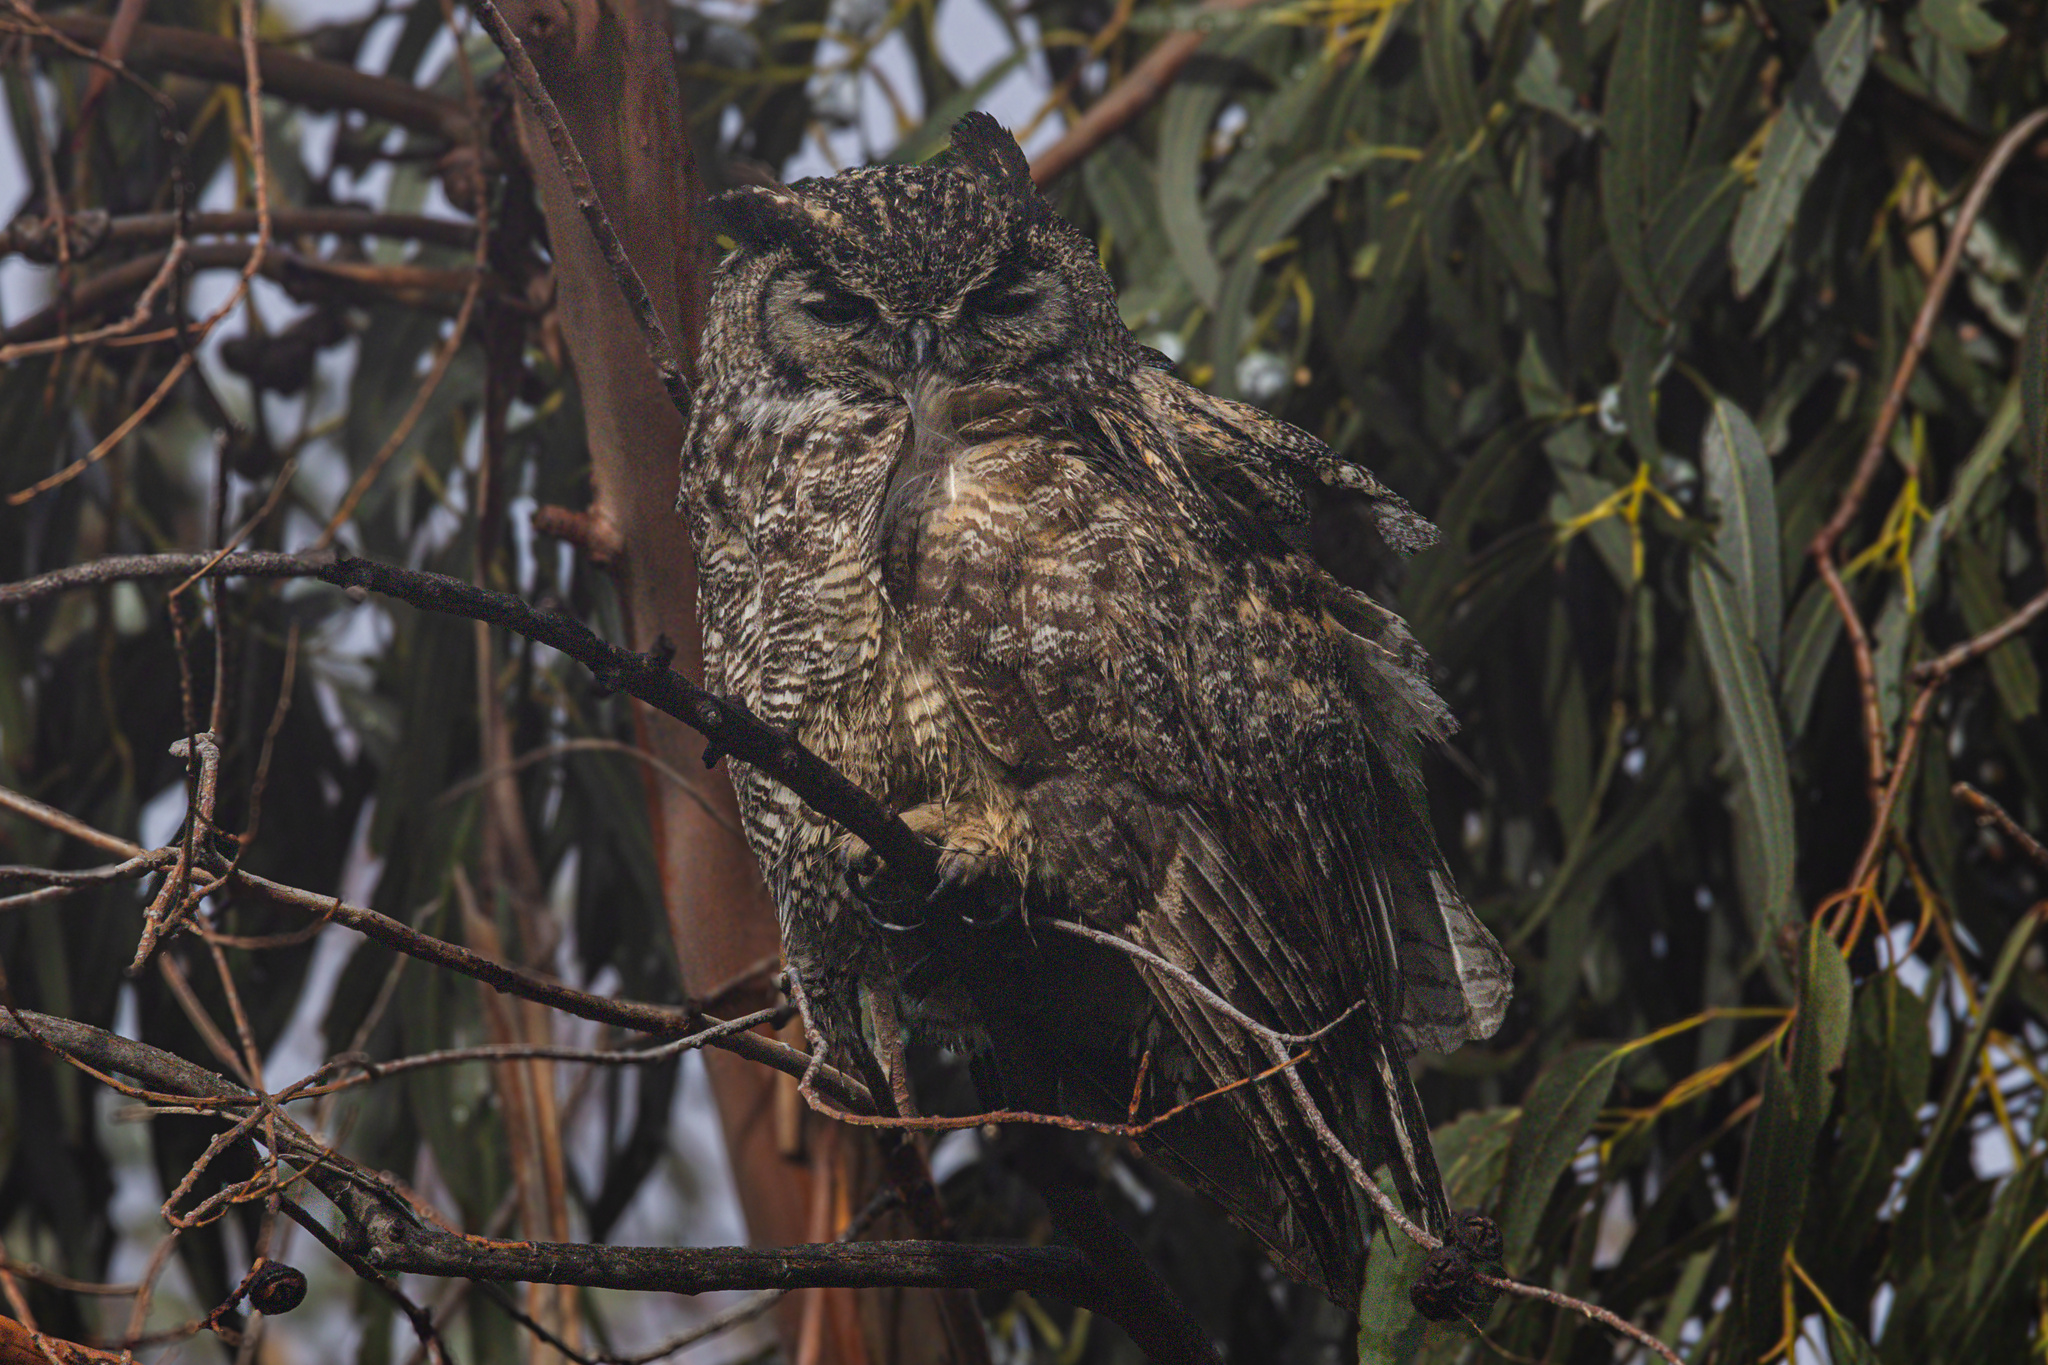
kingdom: Animalia
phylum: Chordata
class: Aves
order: Strigiformes
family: Strigidae
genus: Bubo
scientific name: Bubo virginianus
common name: Great horned owl
